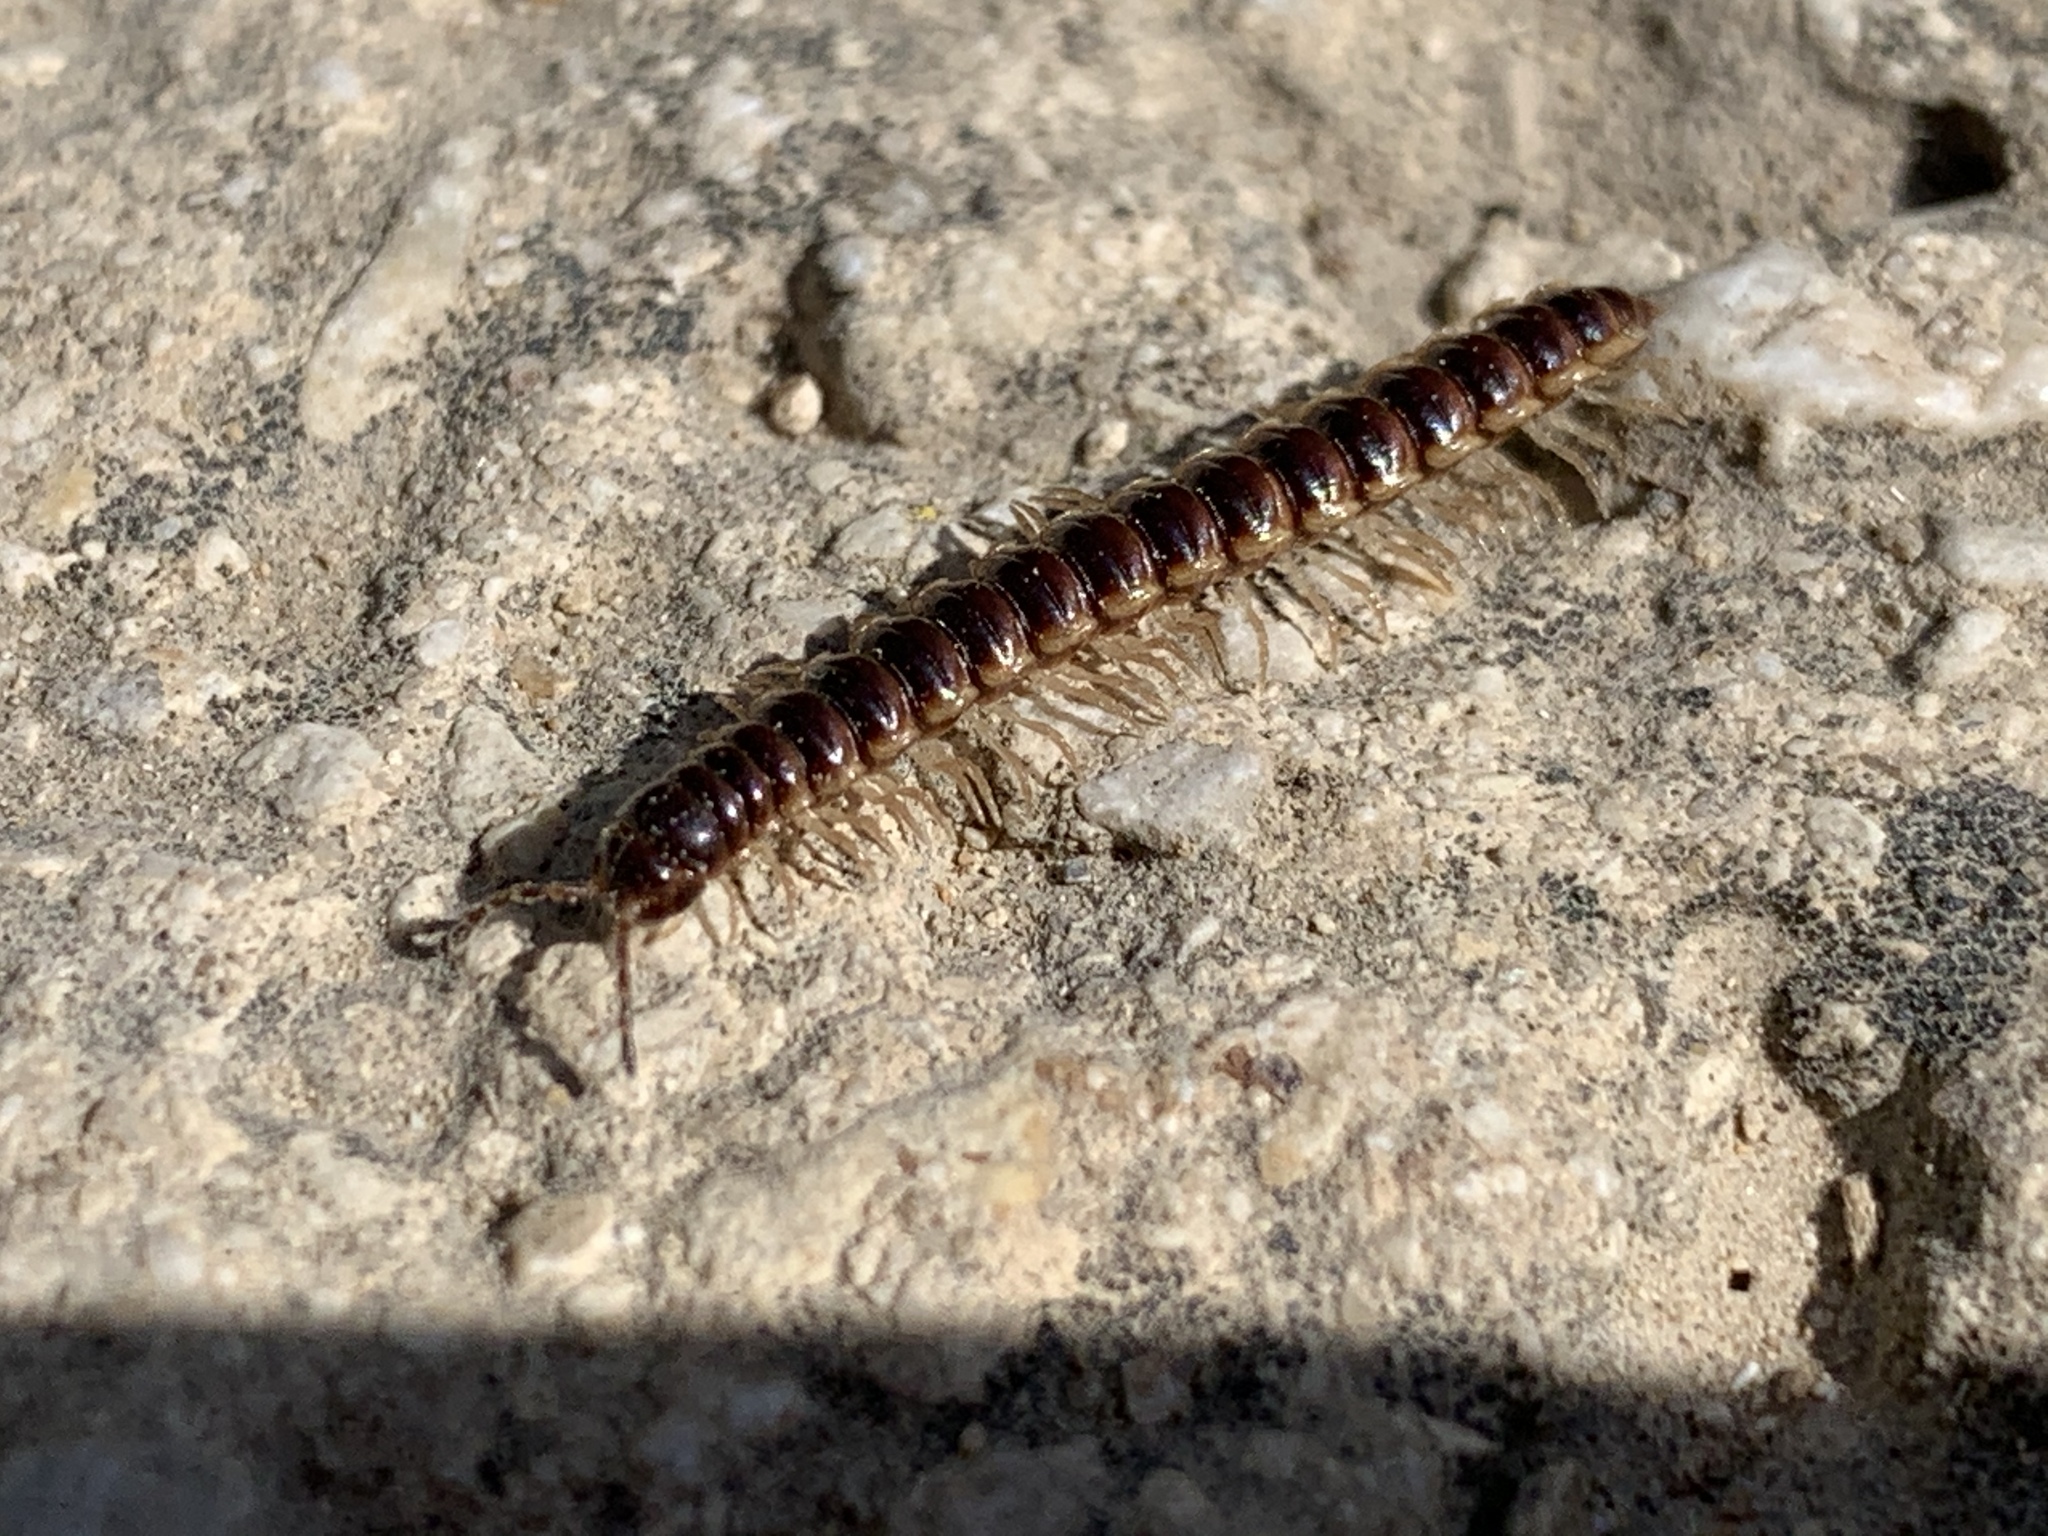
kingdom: Animalia
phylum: Arthropoda
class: Diplopoda
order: Polydesmida
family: Paradoxosomatidae
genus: Oxidus
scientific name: Oxidus gracilis
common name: Greenhouse millipede
